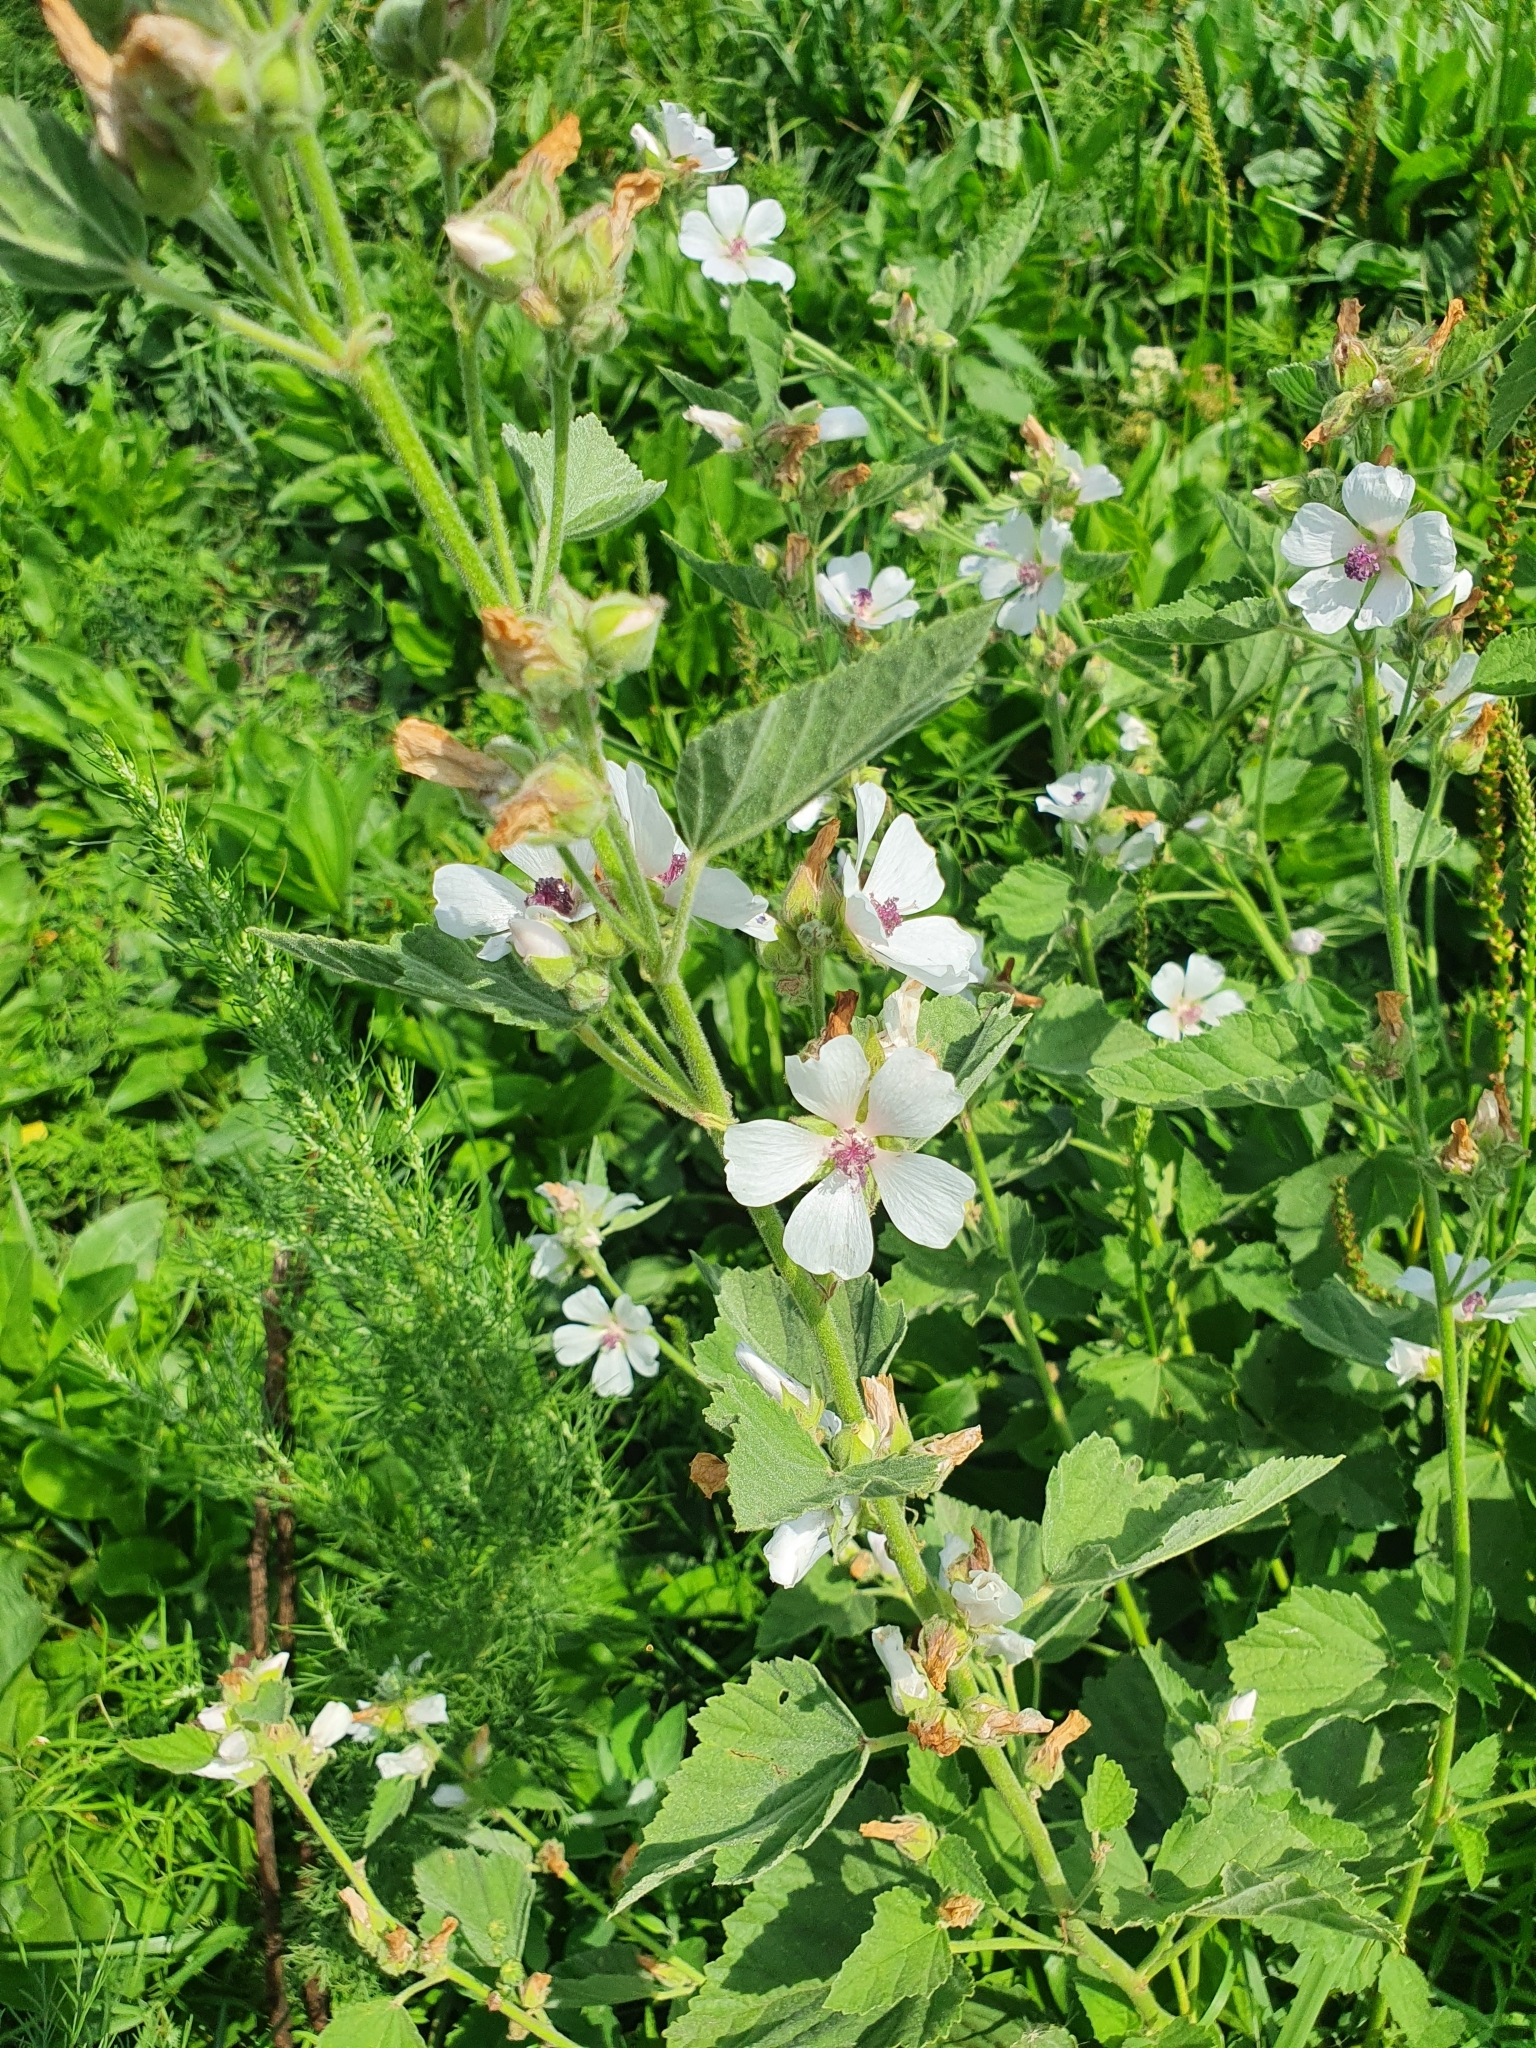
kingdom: Plantae
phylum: Tracheophyta
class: Magnoliopsida
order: Malvales
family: Malvaceae
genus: Althaea
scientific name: Althaea officinalis
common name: Marsh-mallow
